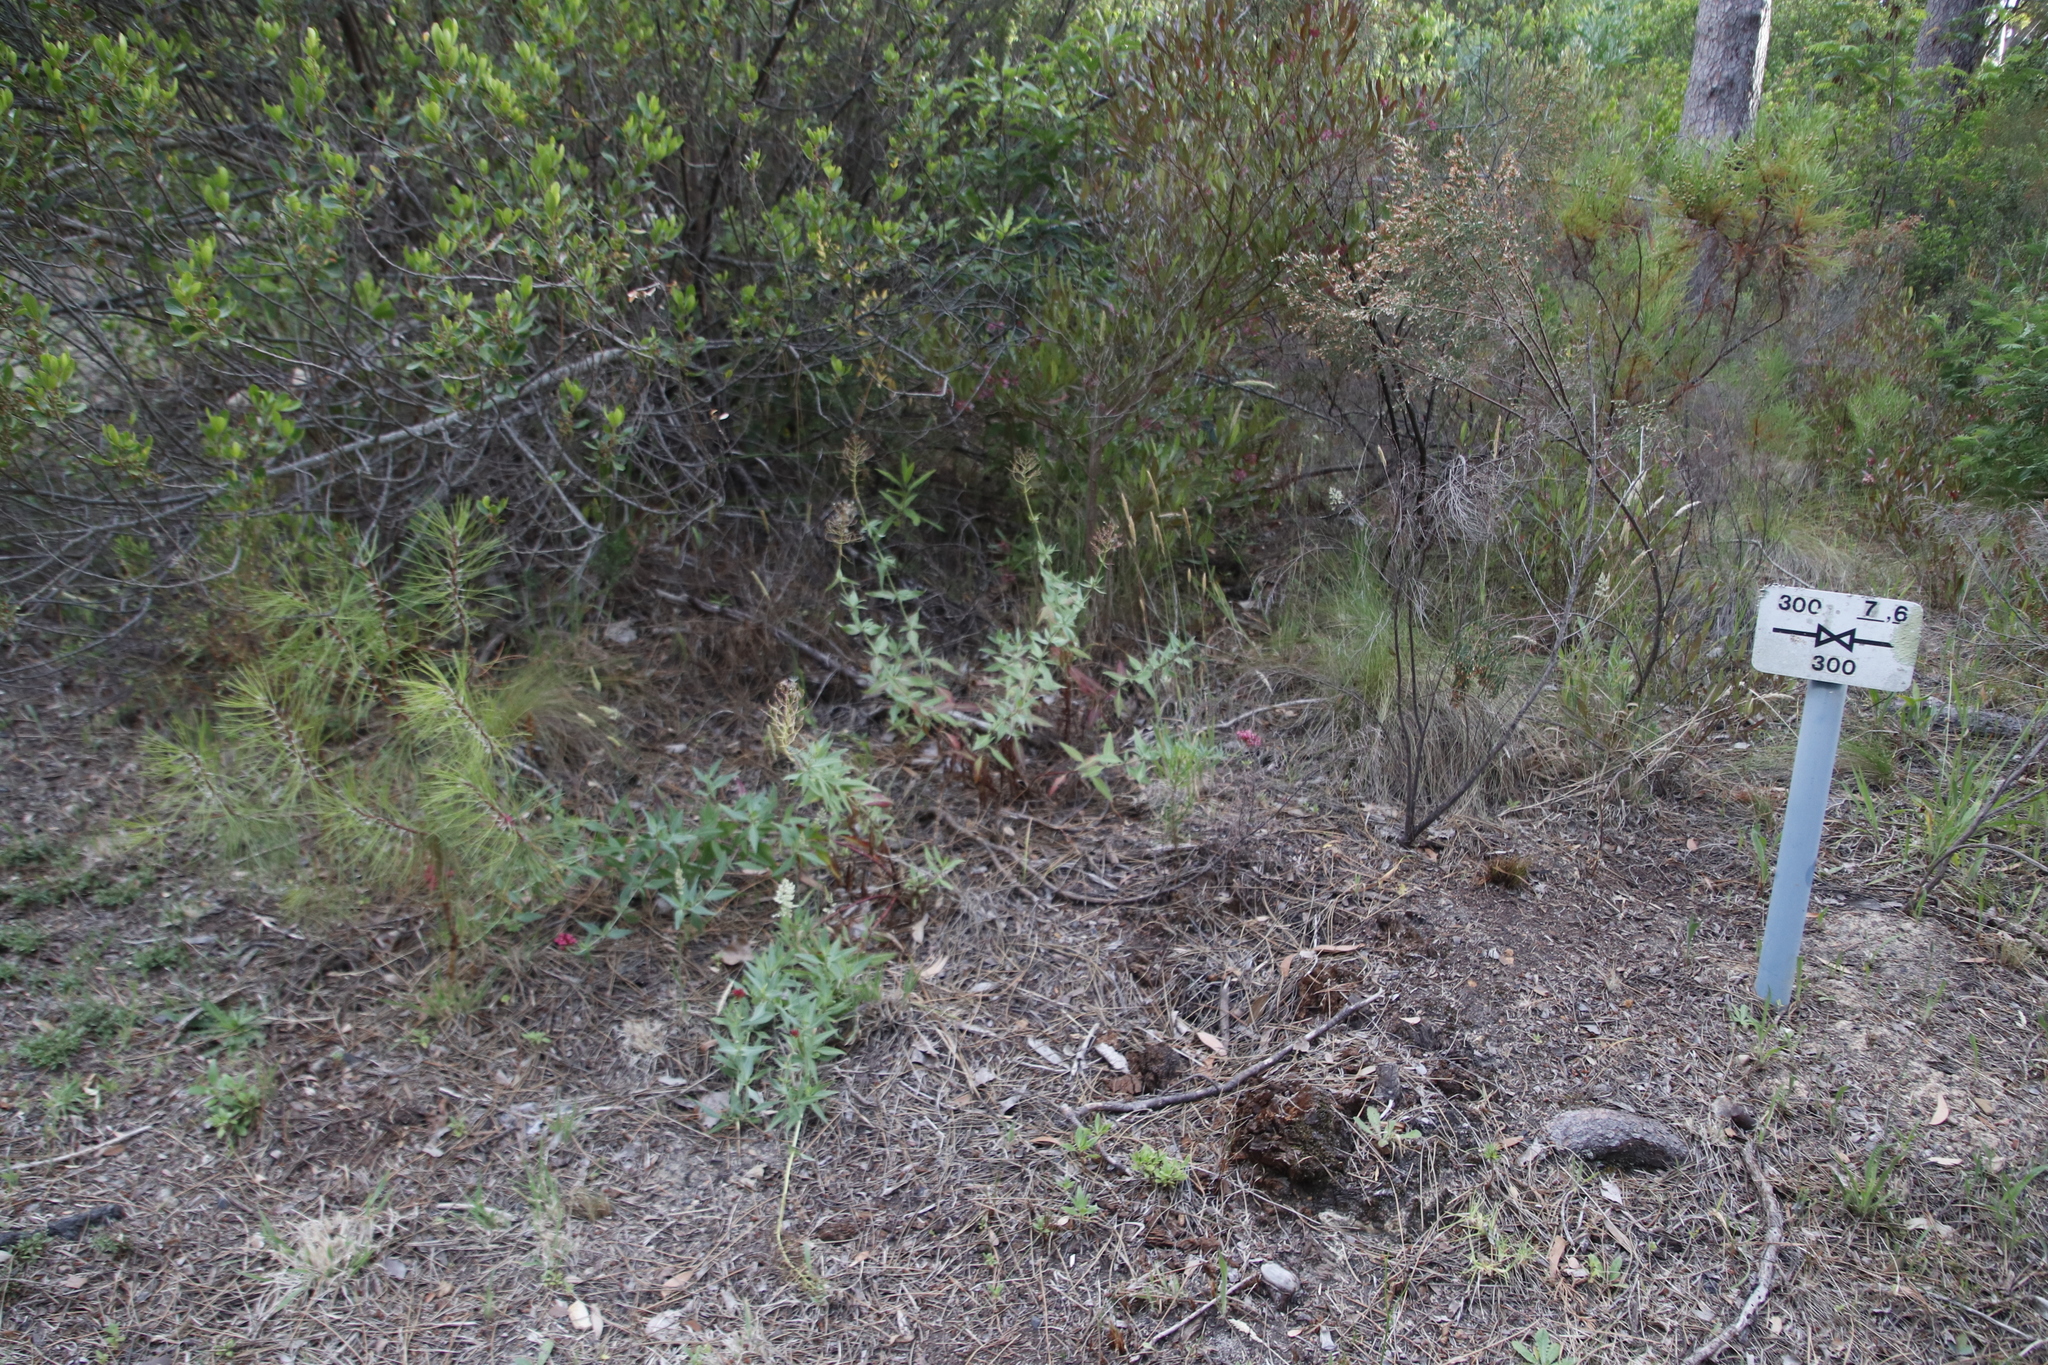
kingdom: Plantae
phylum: Tracheophyta
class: Magnoliopsida
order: Dipsacales
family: Caprifoliaceae
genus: Centranthus
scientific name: Centranthus ruber
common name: Red valerian
